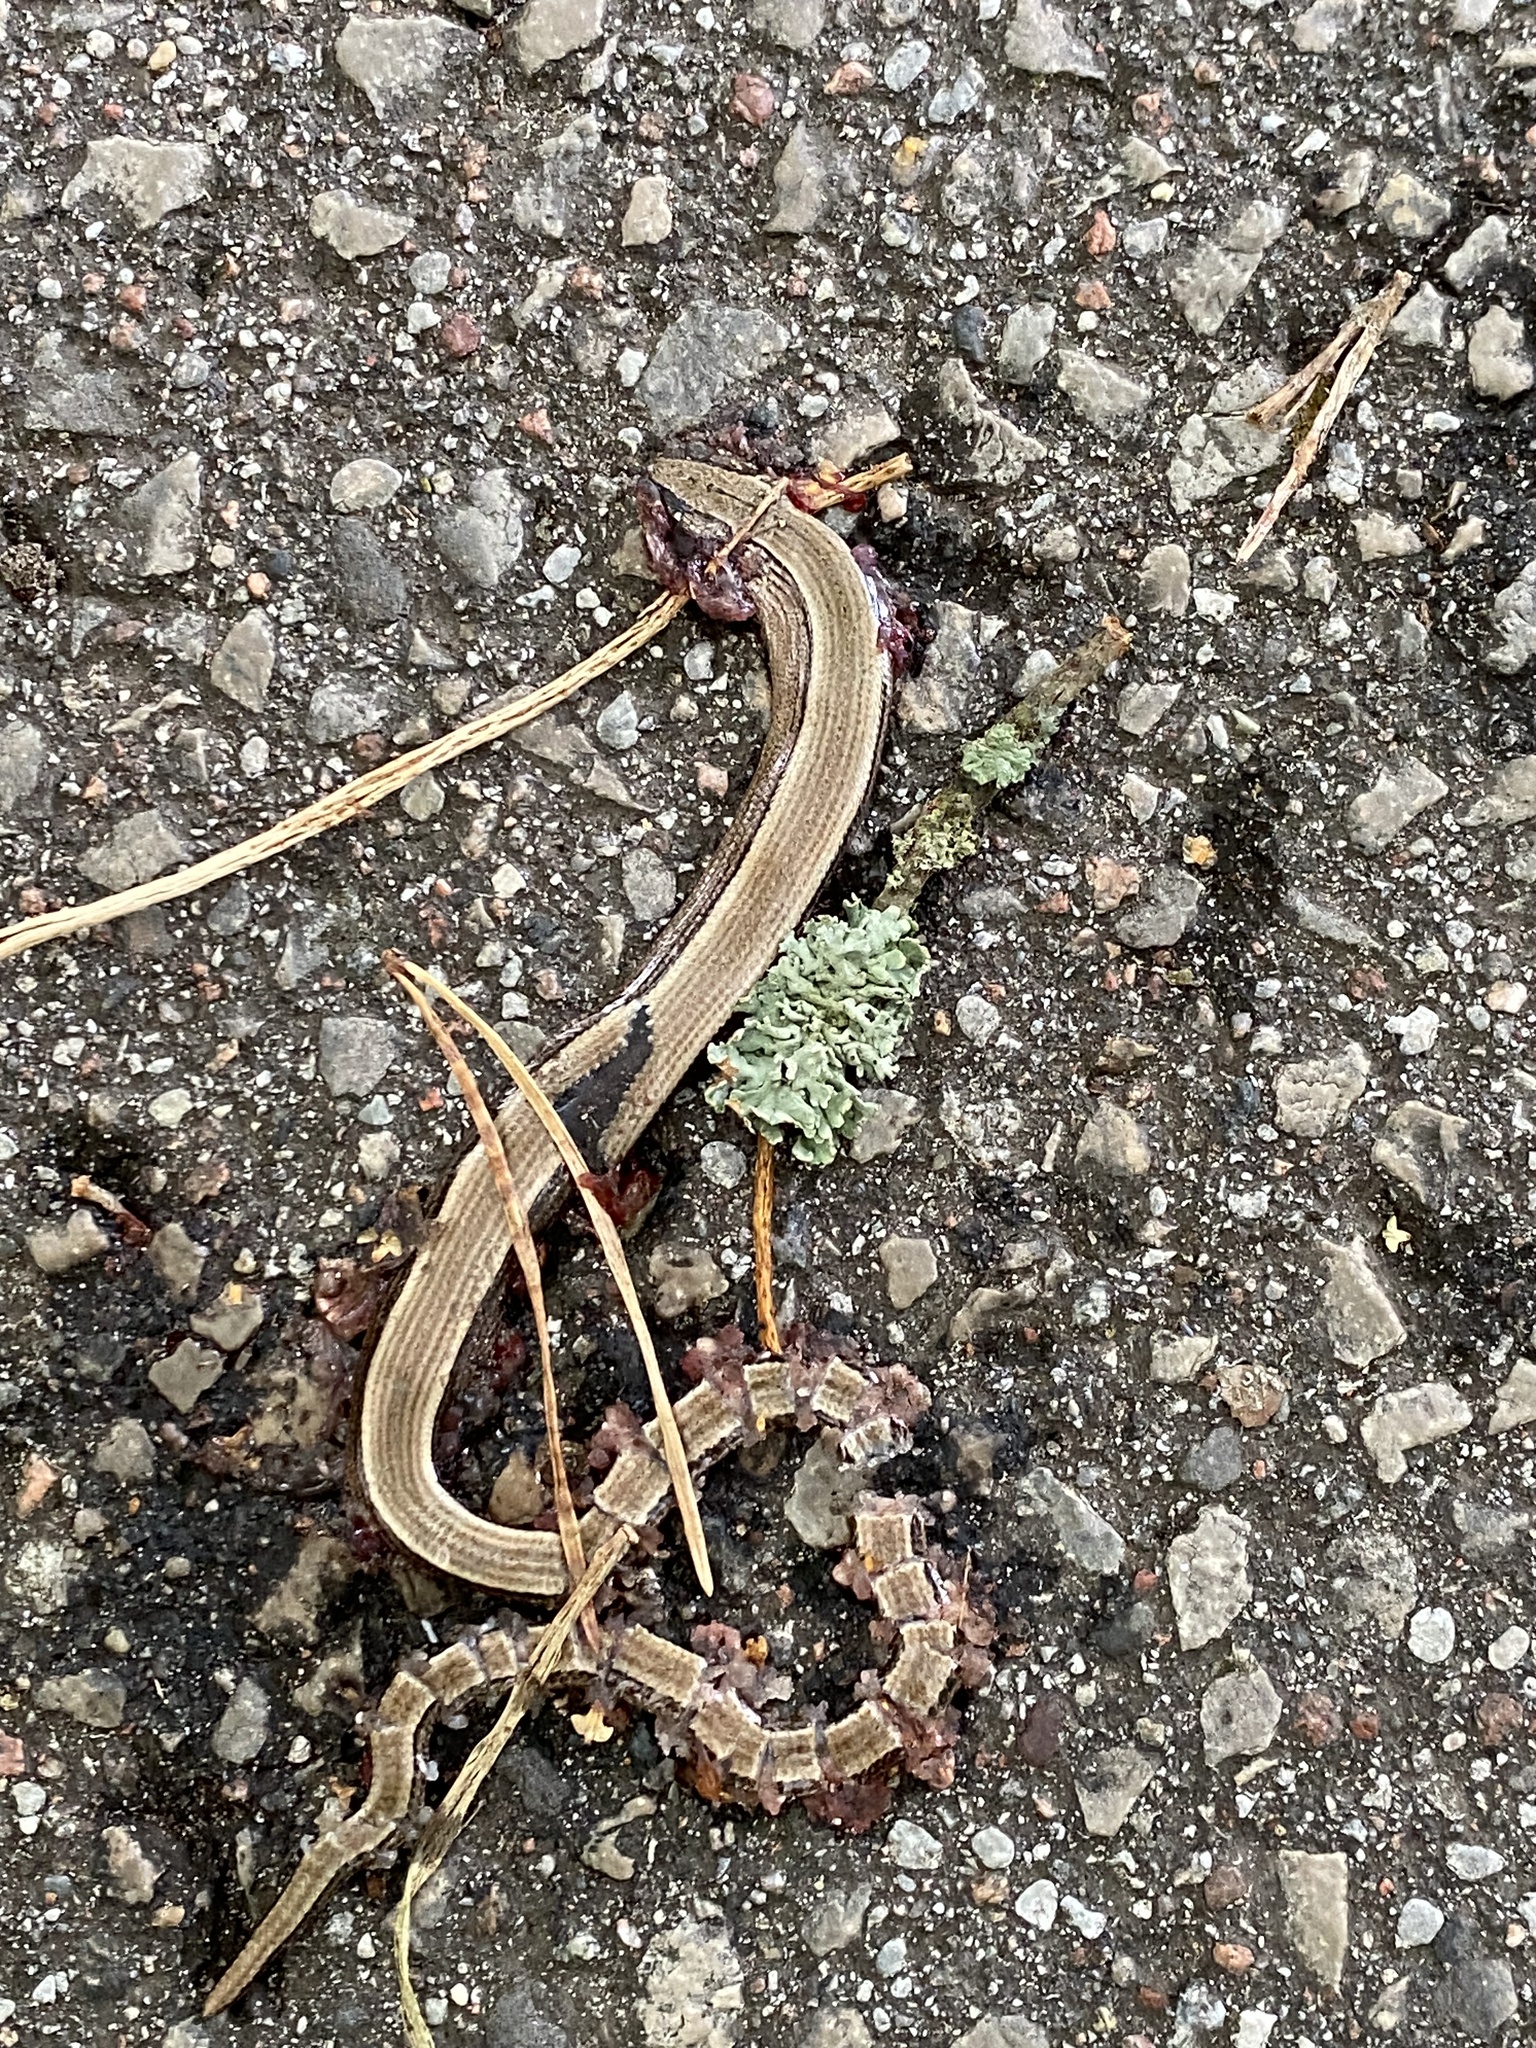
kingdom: Animalia
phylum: Chordata
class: Squamata
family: Anguidae
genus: Anguis
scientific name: Anguis fragilis
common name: Slow worm
